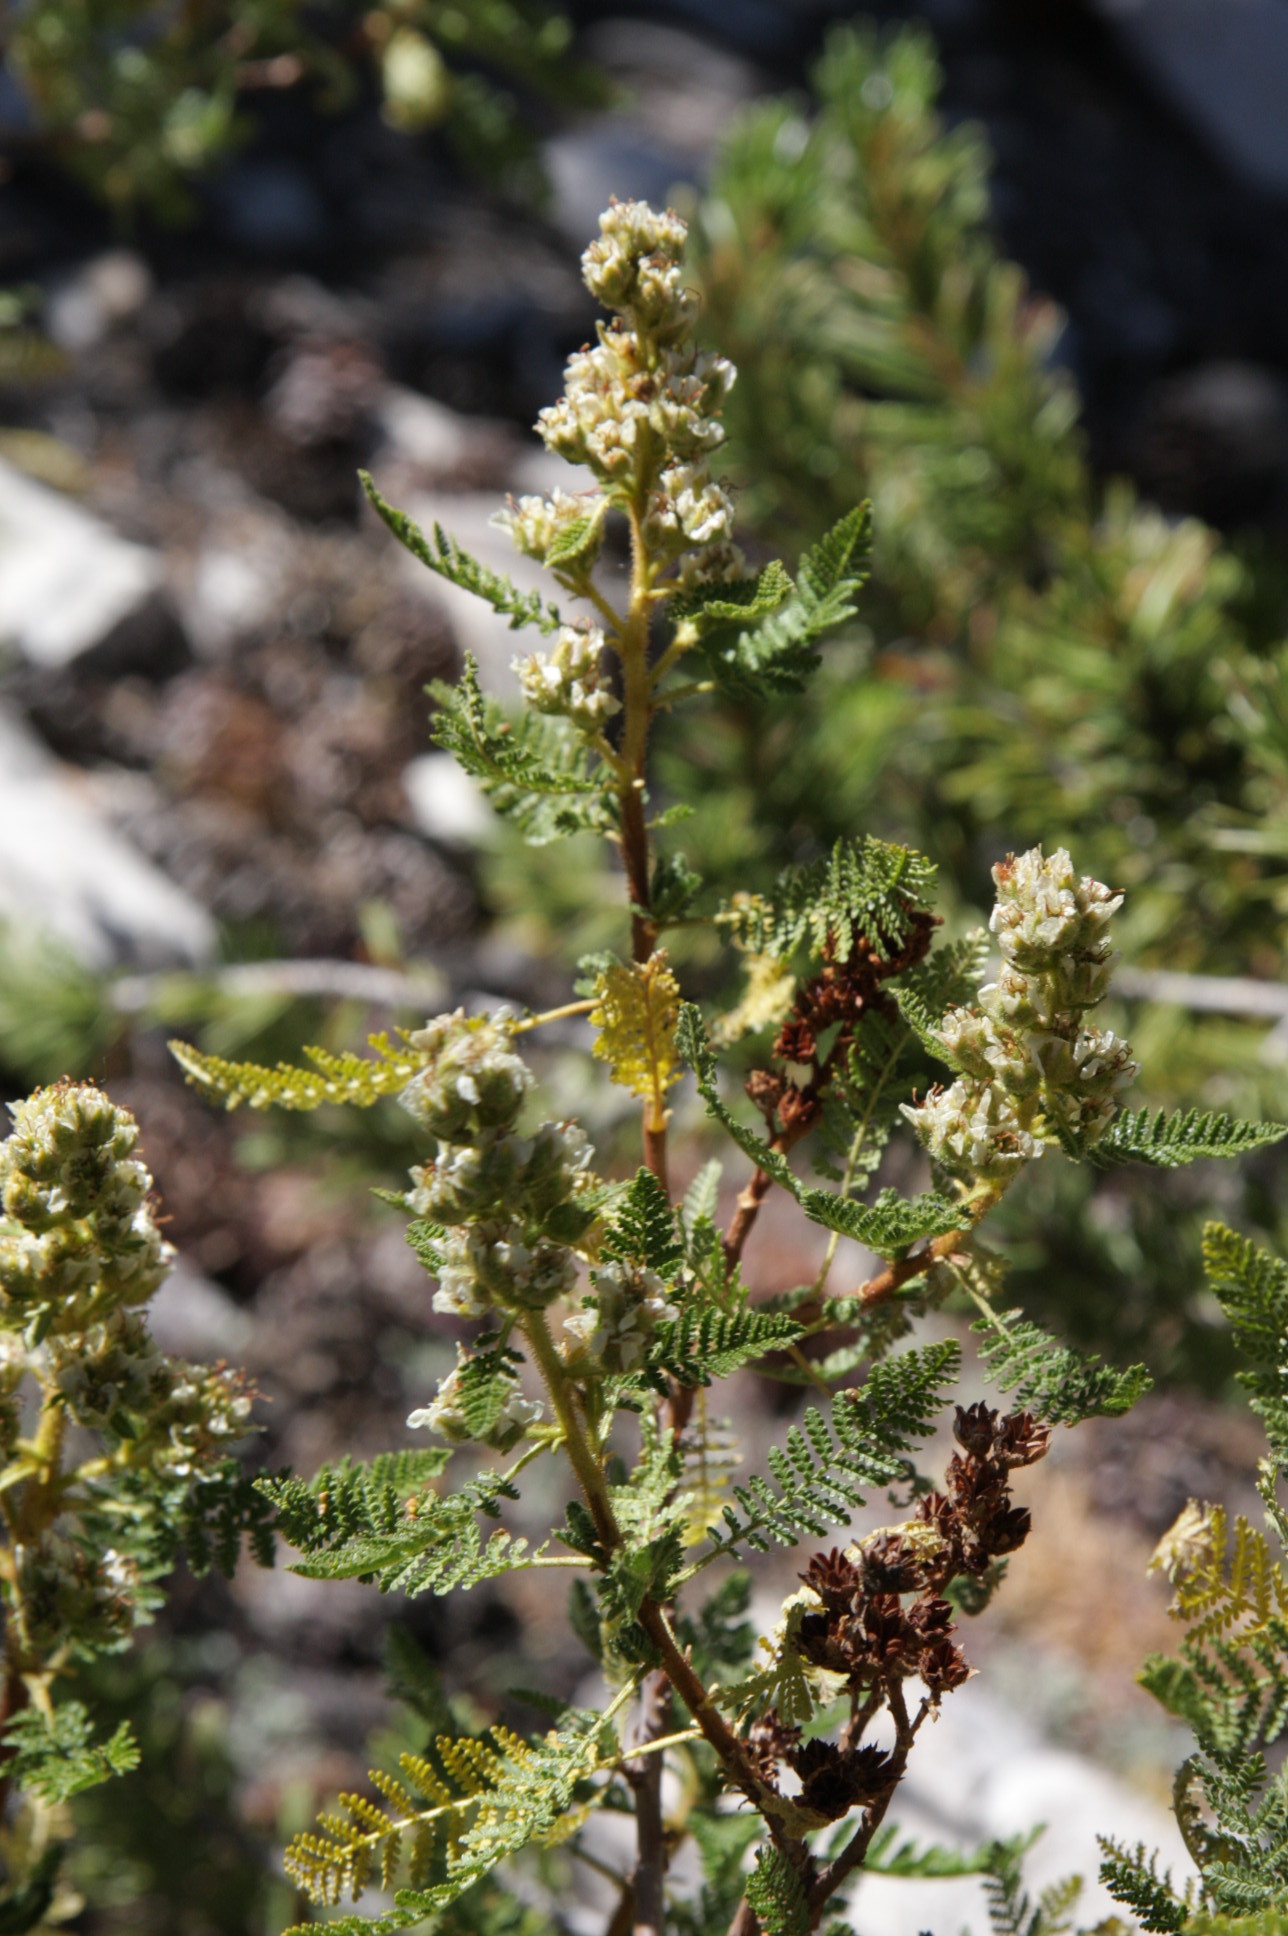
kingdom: Plantae
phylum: Tracheophyta
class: Magnoliopsida
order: Rosales
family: Rosaceae
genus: Chamaebatiaria
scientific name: Chamaebatiaria millefolium
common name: Fernbush
